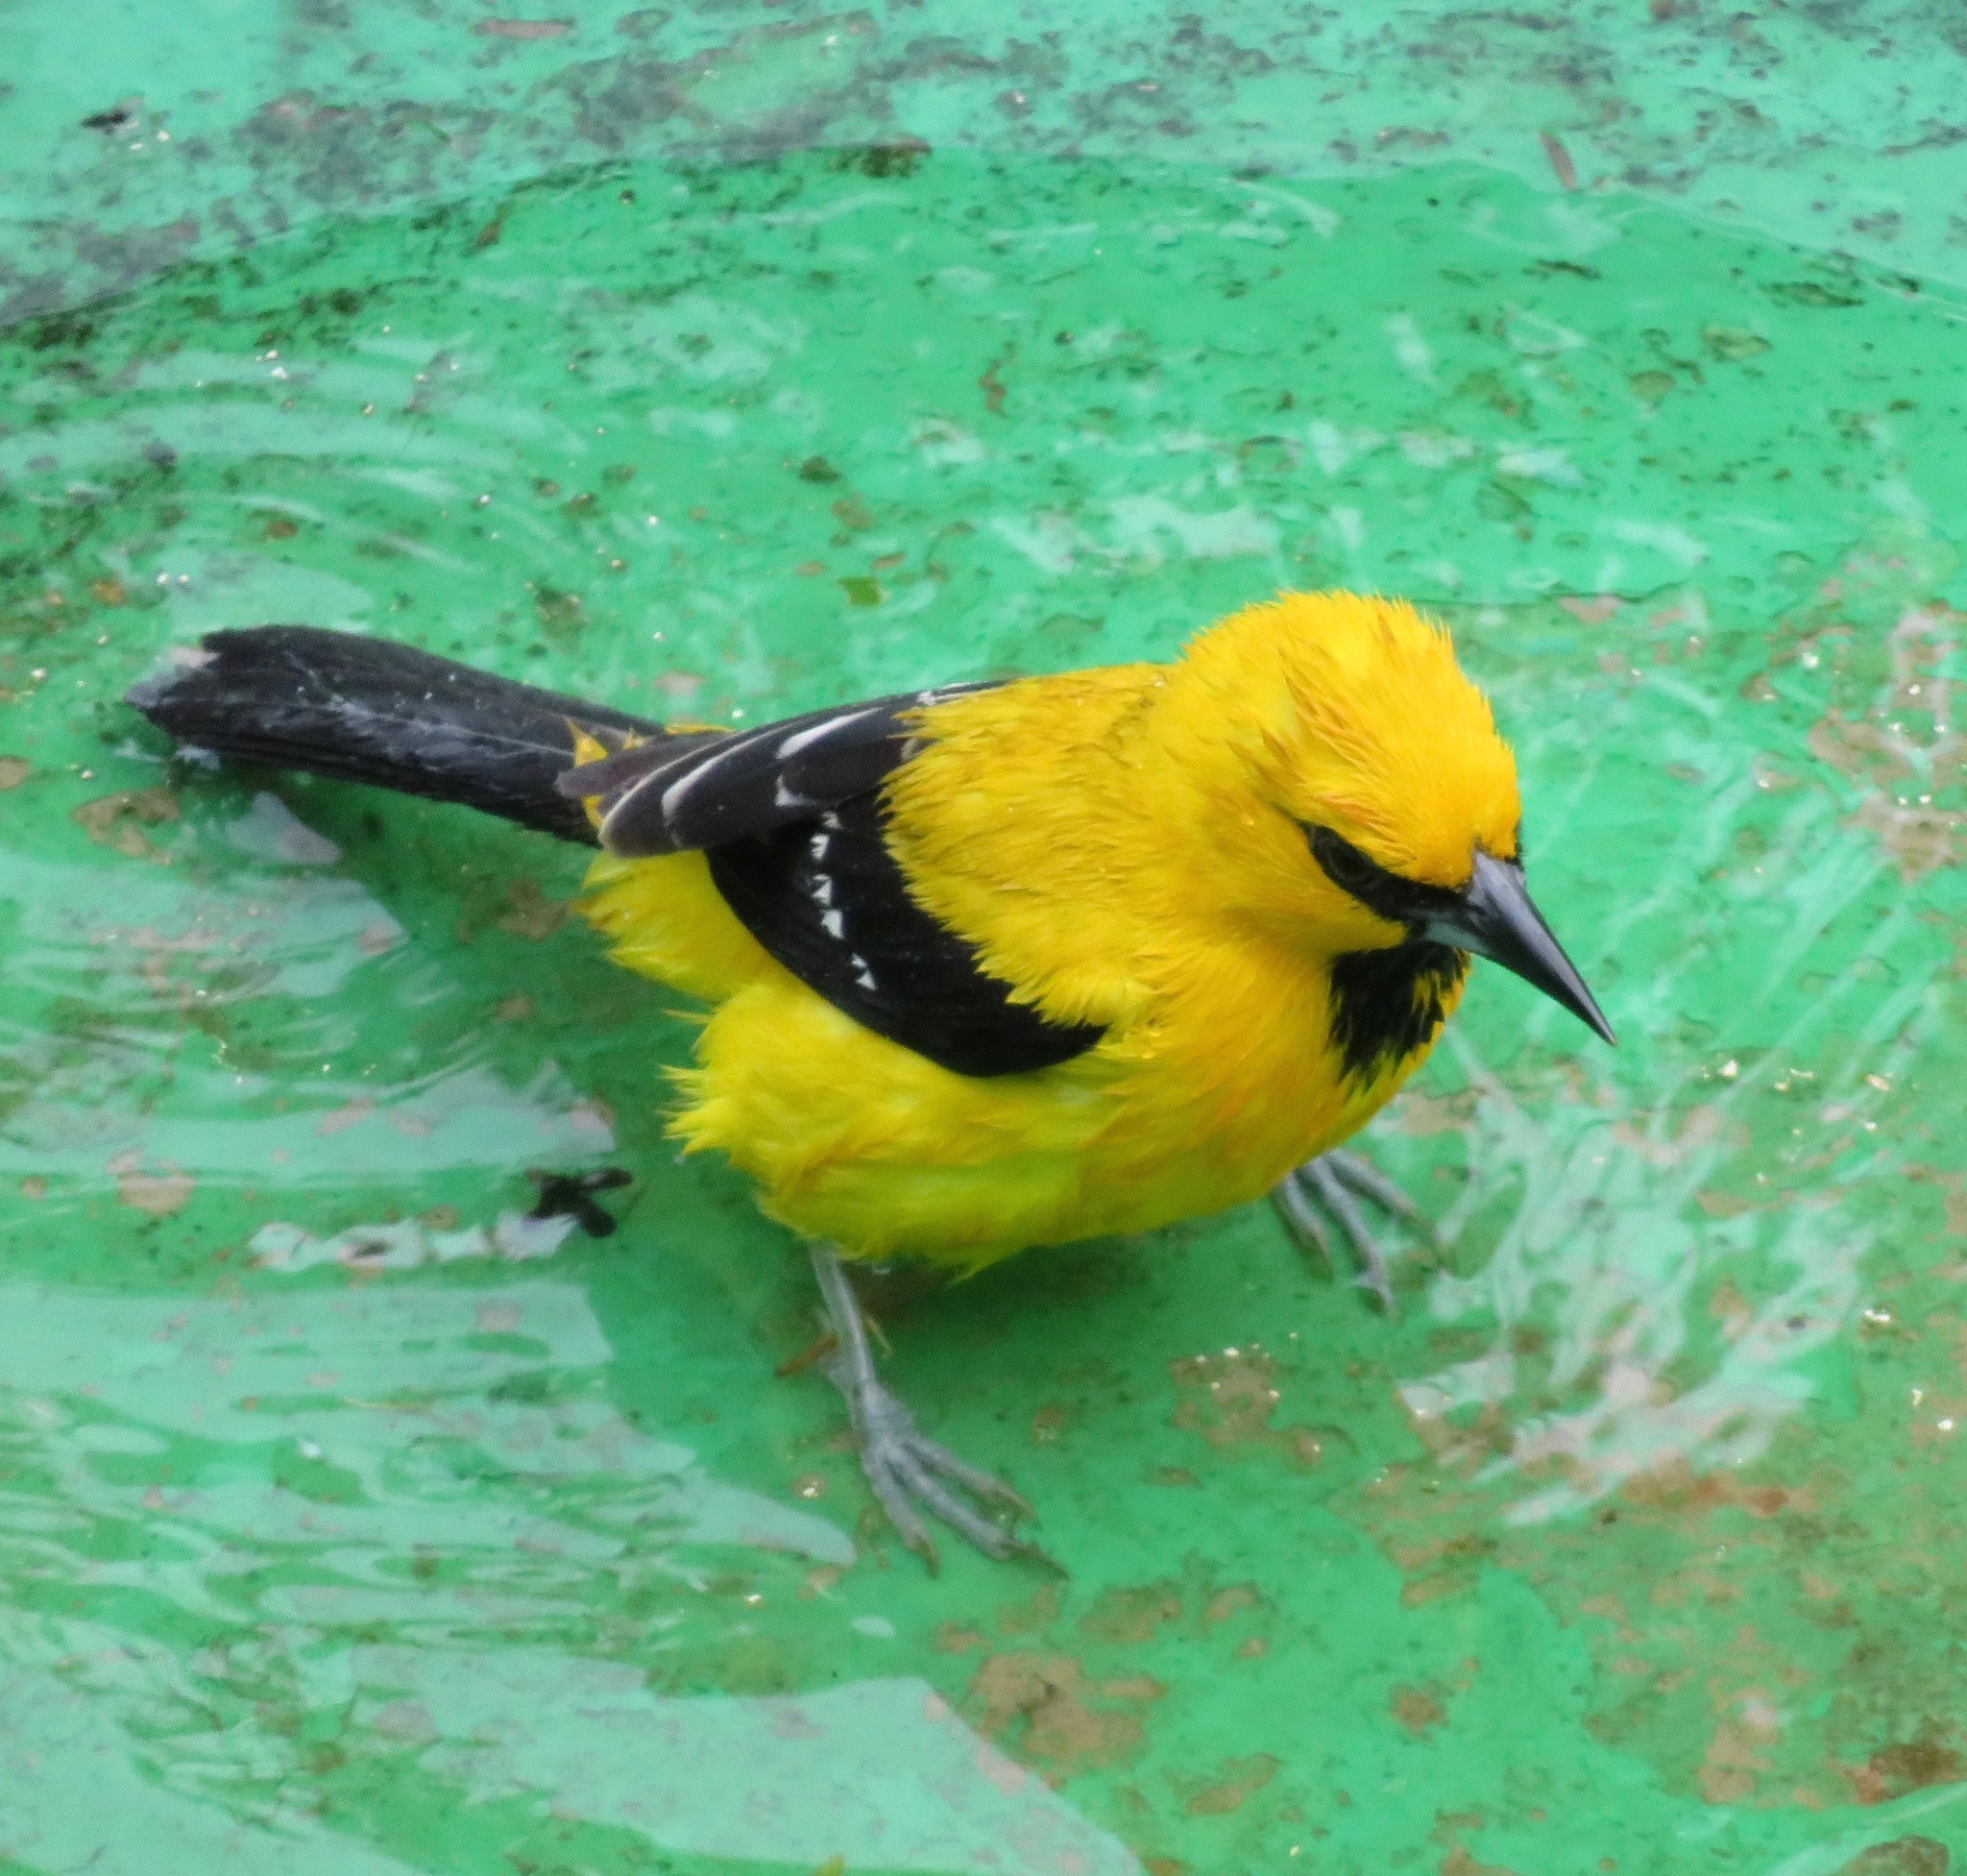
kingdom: Animalia
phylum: Chordata
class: Aves
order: Passeriformes
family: Icteridae
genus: Icterus
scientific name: Icterus nigrogularis
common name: Yellow oriole
